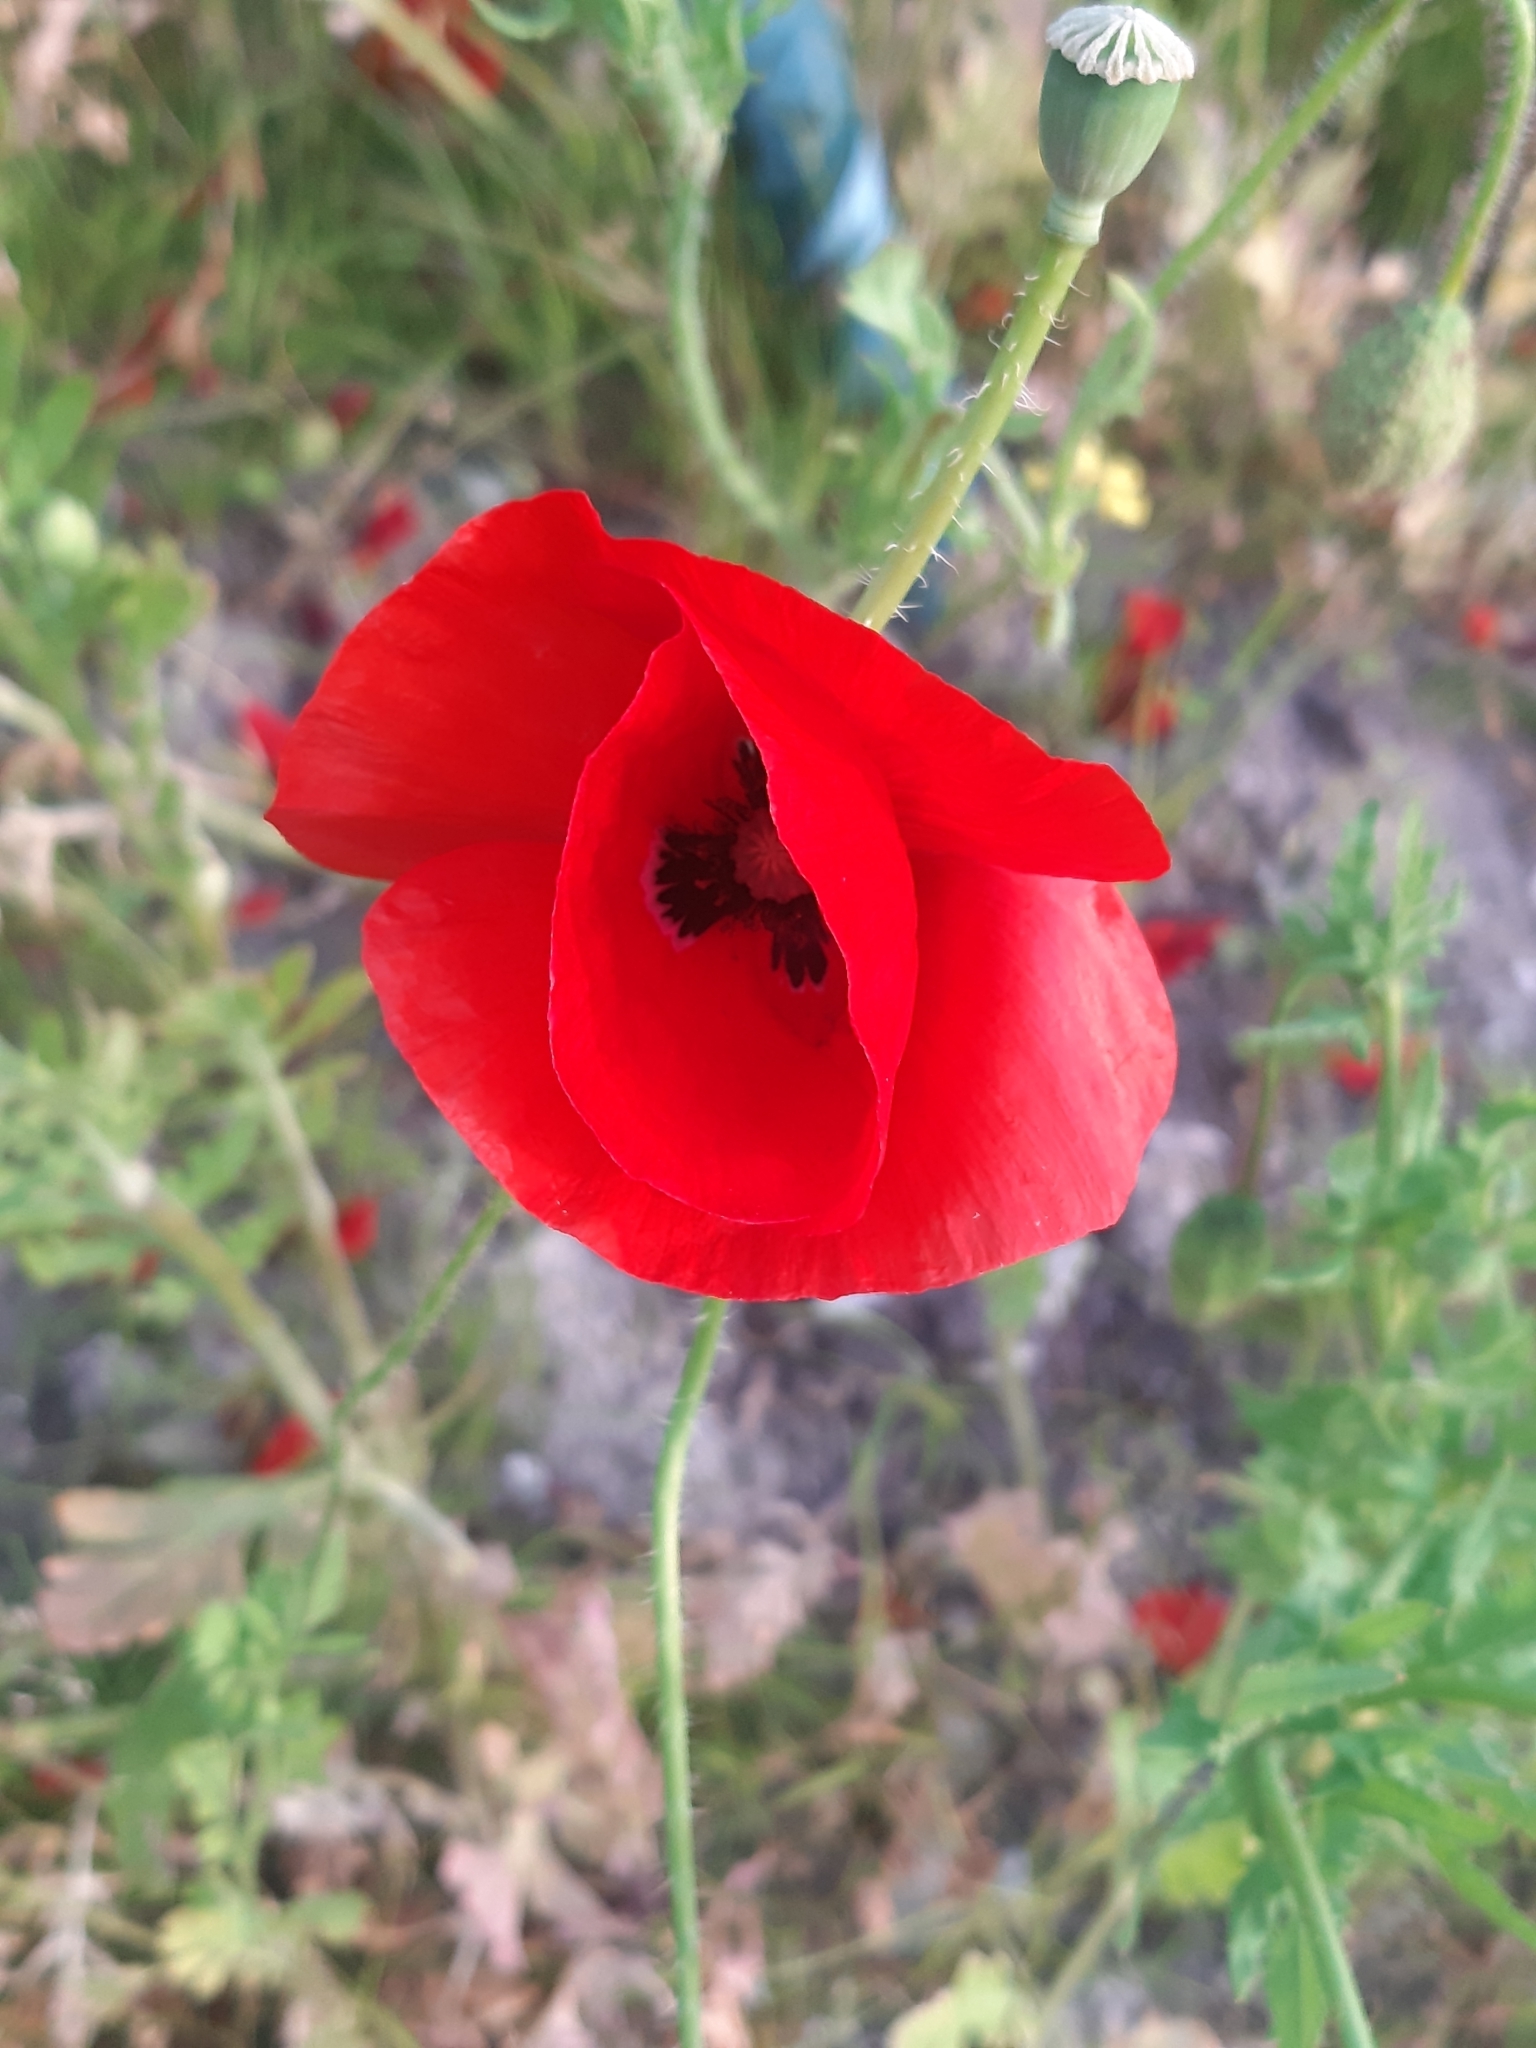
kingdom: Plantae
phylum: Tracheophyta
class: Magnoliopsida
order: Ranunculales
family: Papaveraceae
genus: Papaver
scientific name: Papaver rhoeas
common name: Corn poppy
